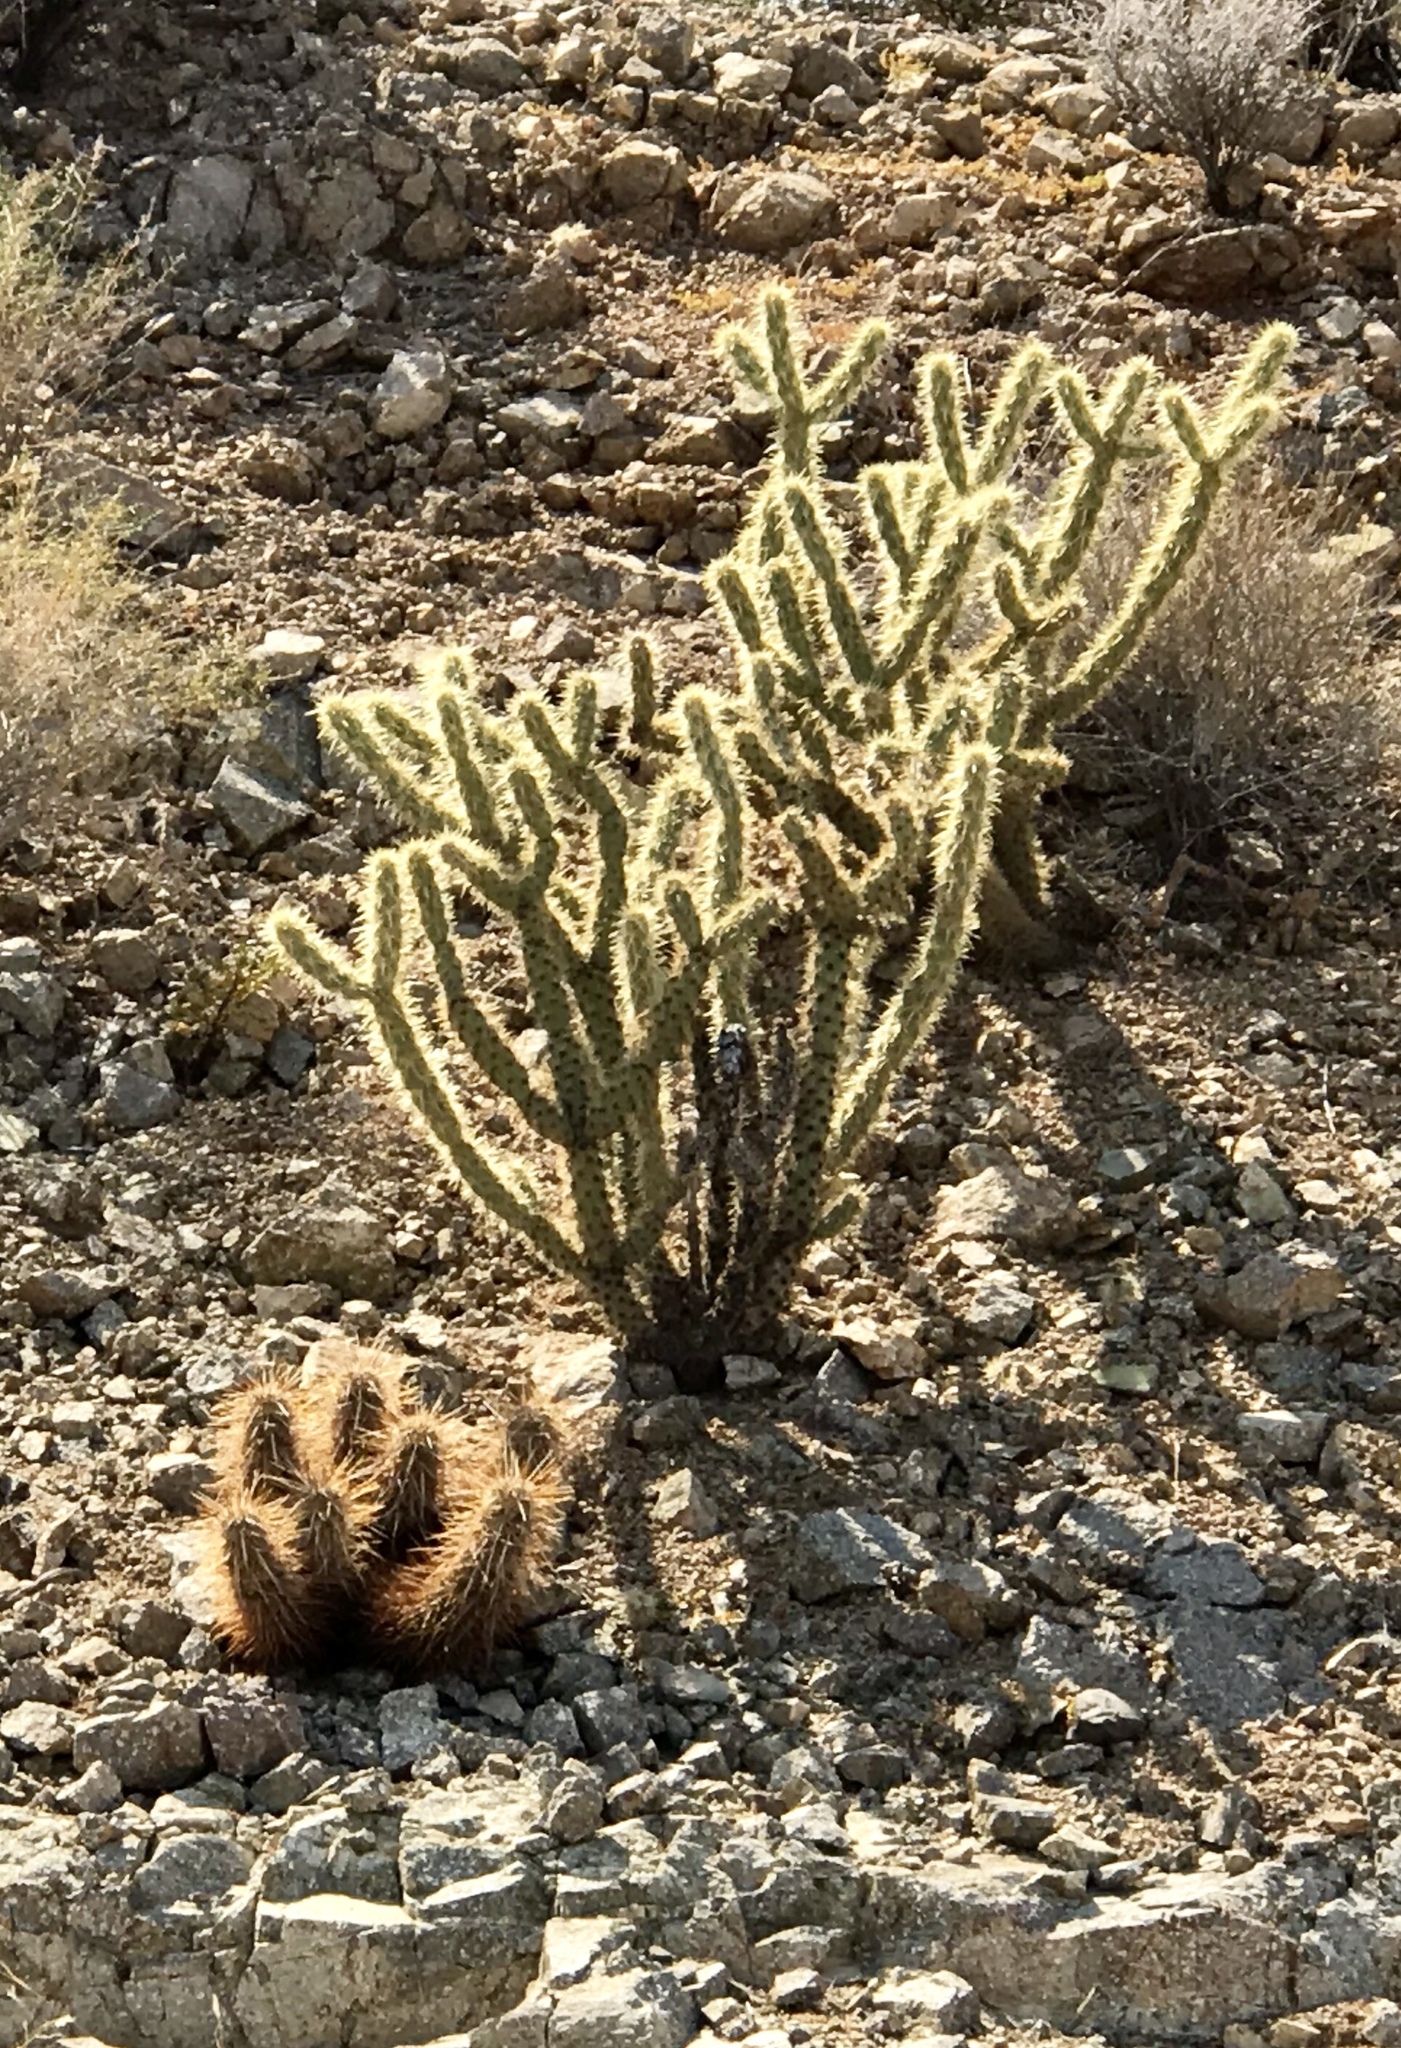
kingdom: Plantae
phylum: Tracheophyta
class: Magnoliopsida
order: Caryophyllales
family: Cactaceae
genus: Echinocereus
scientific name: Echinocereus engelmannii
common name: Engelmann's hedgehog cactus
